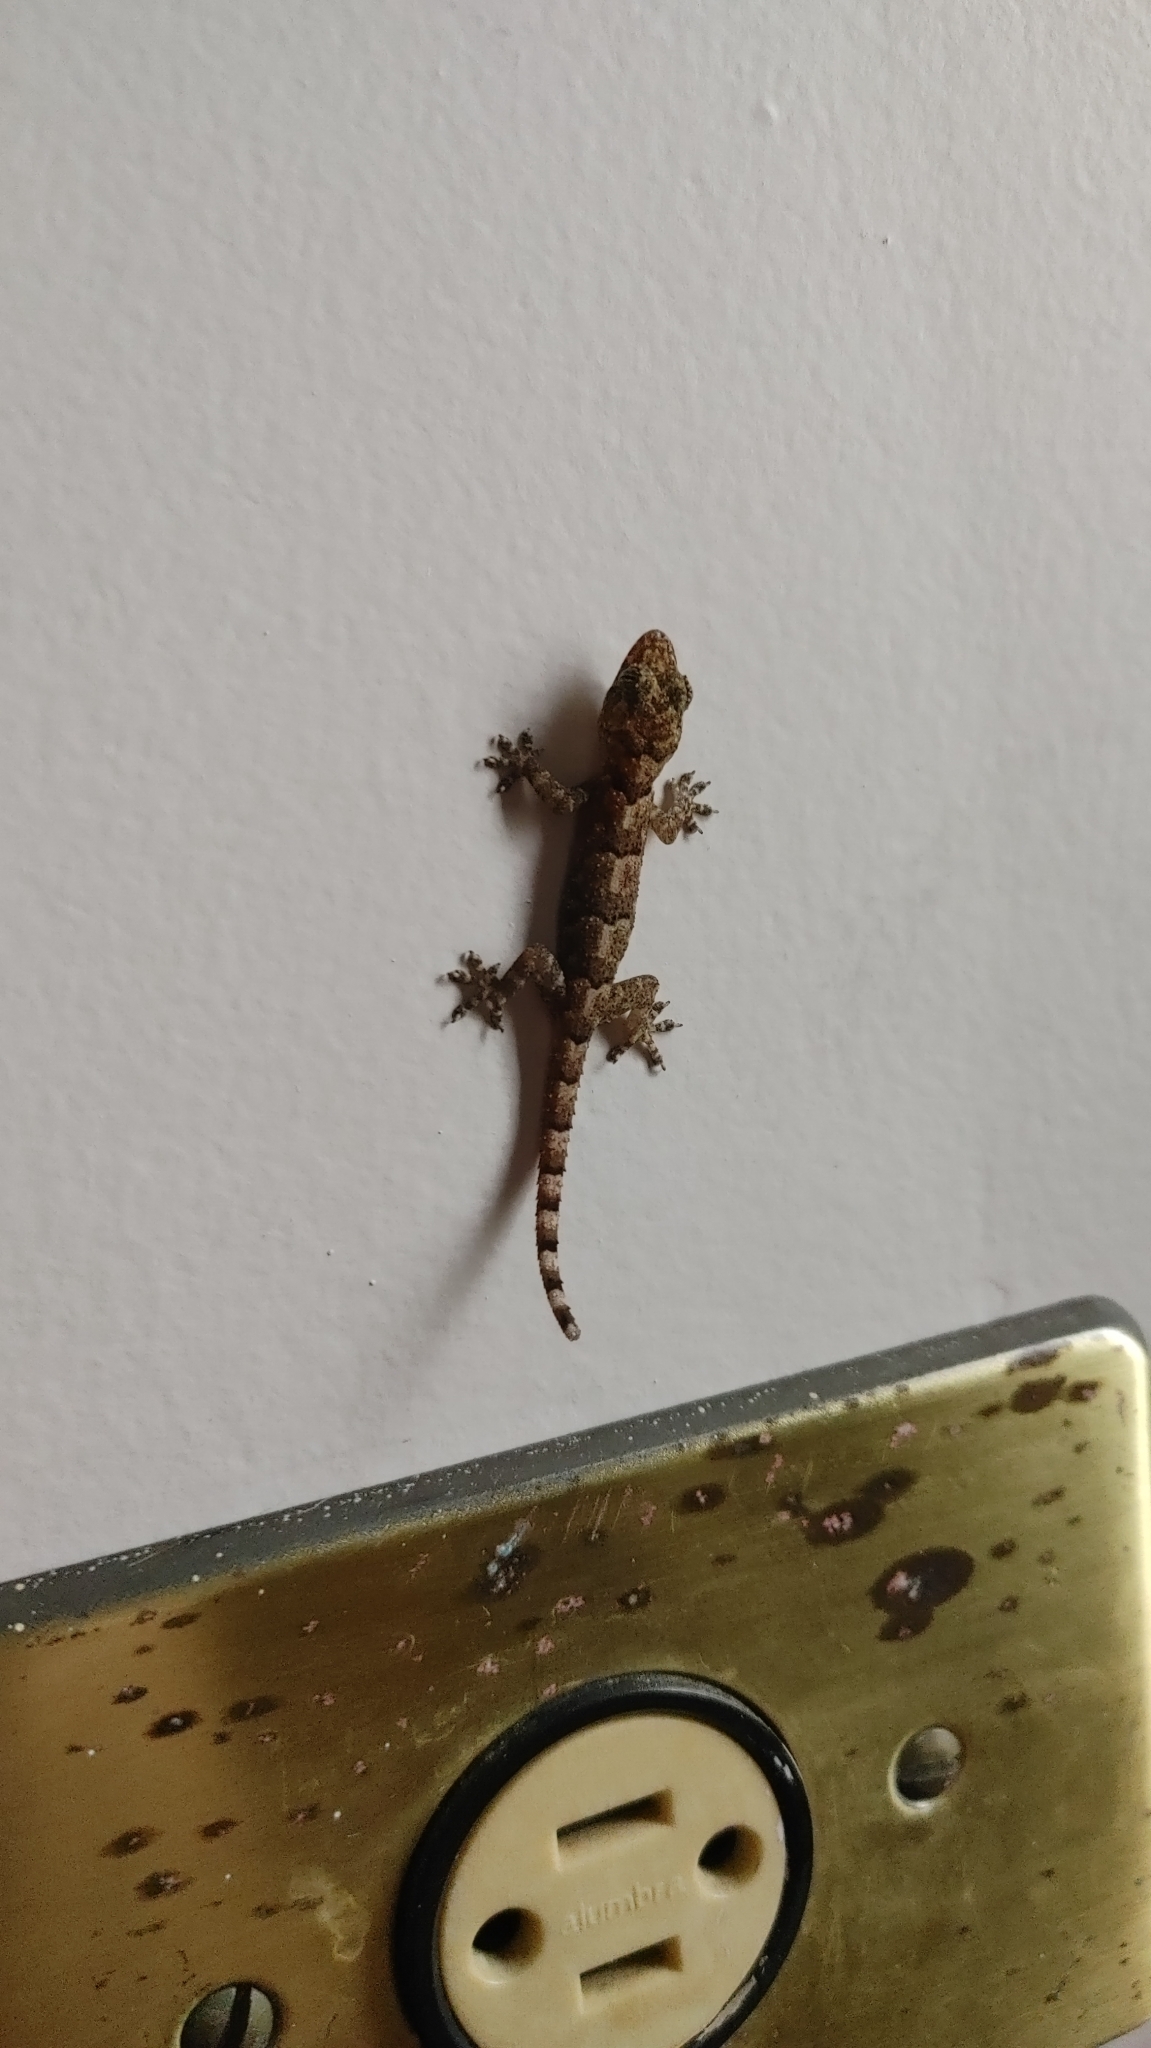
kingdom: Animalia
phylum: Chordata
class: Squamata
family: Gekkonidae
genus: Hemidactylus
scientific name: Hemidactylus mabouia
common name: House gecko
